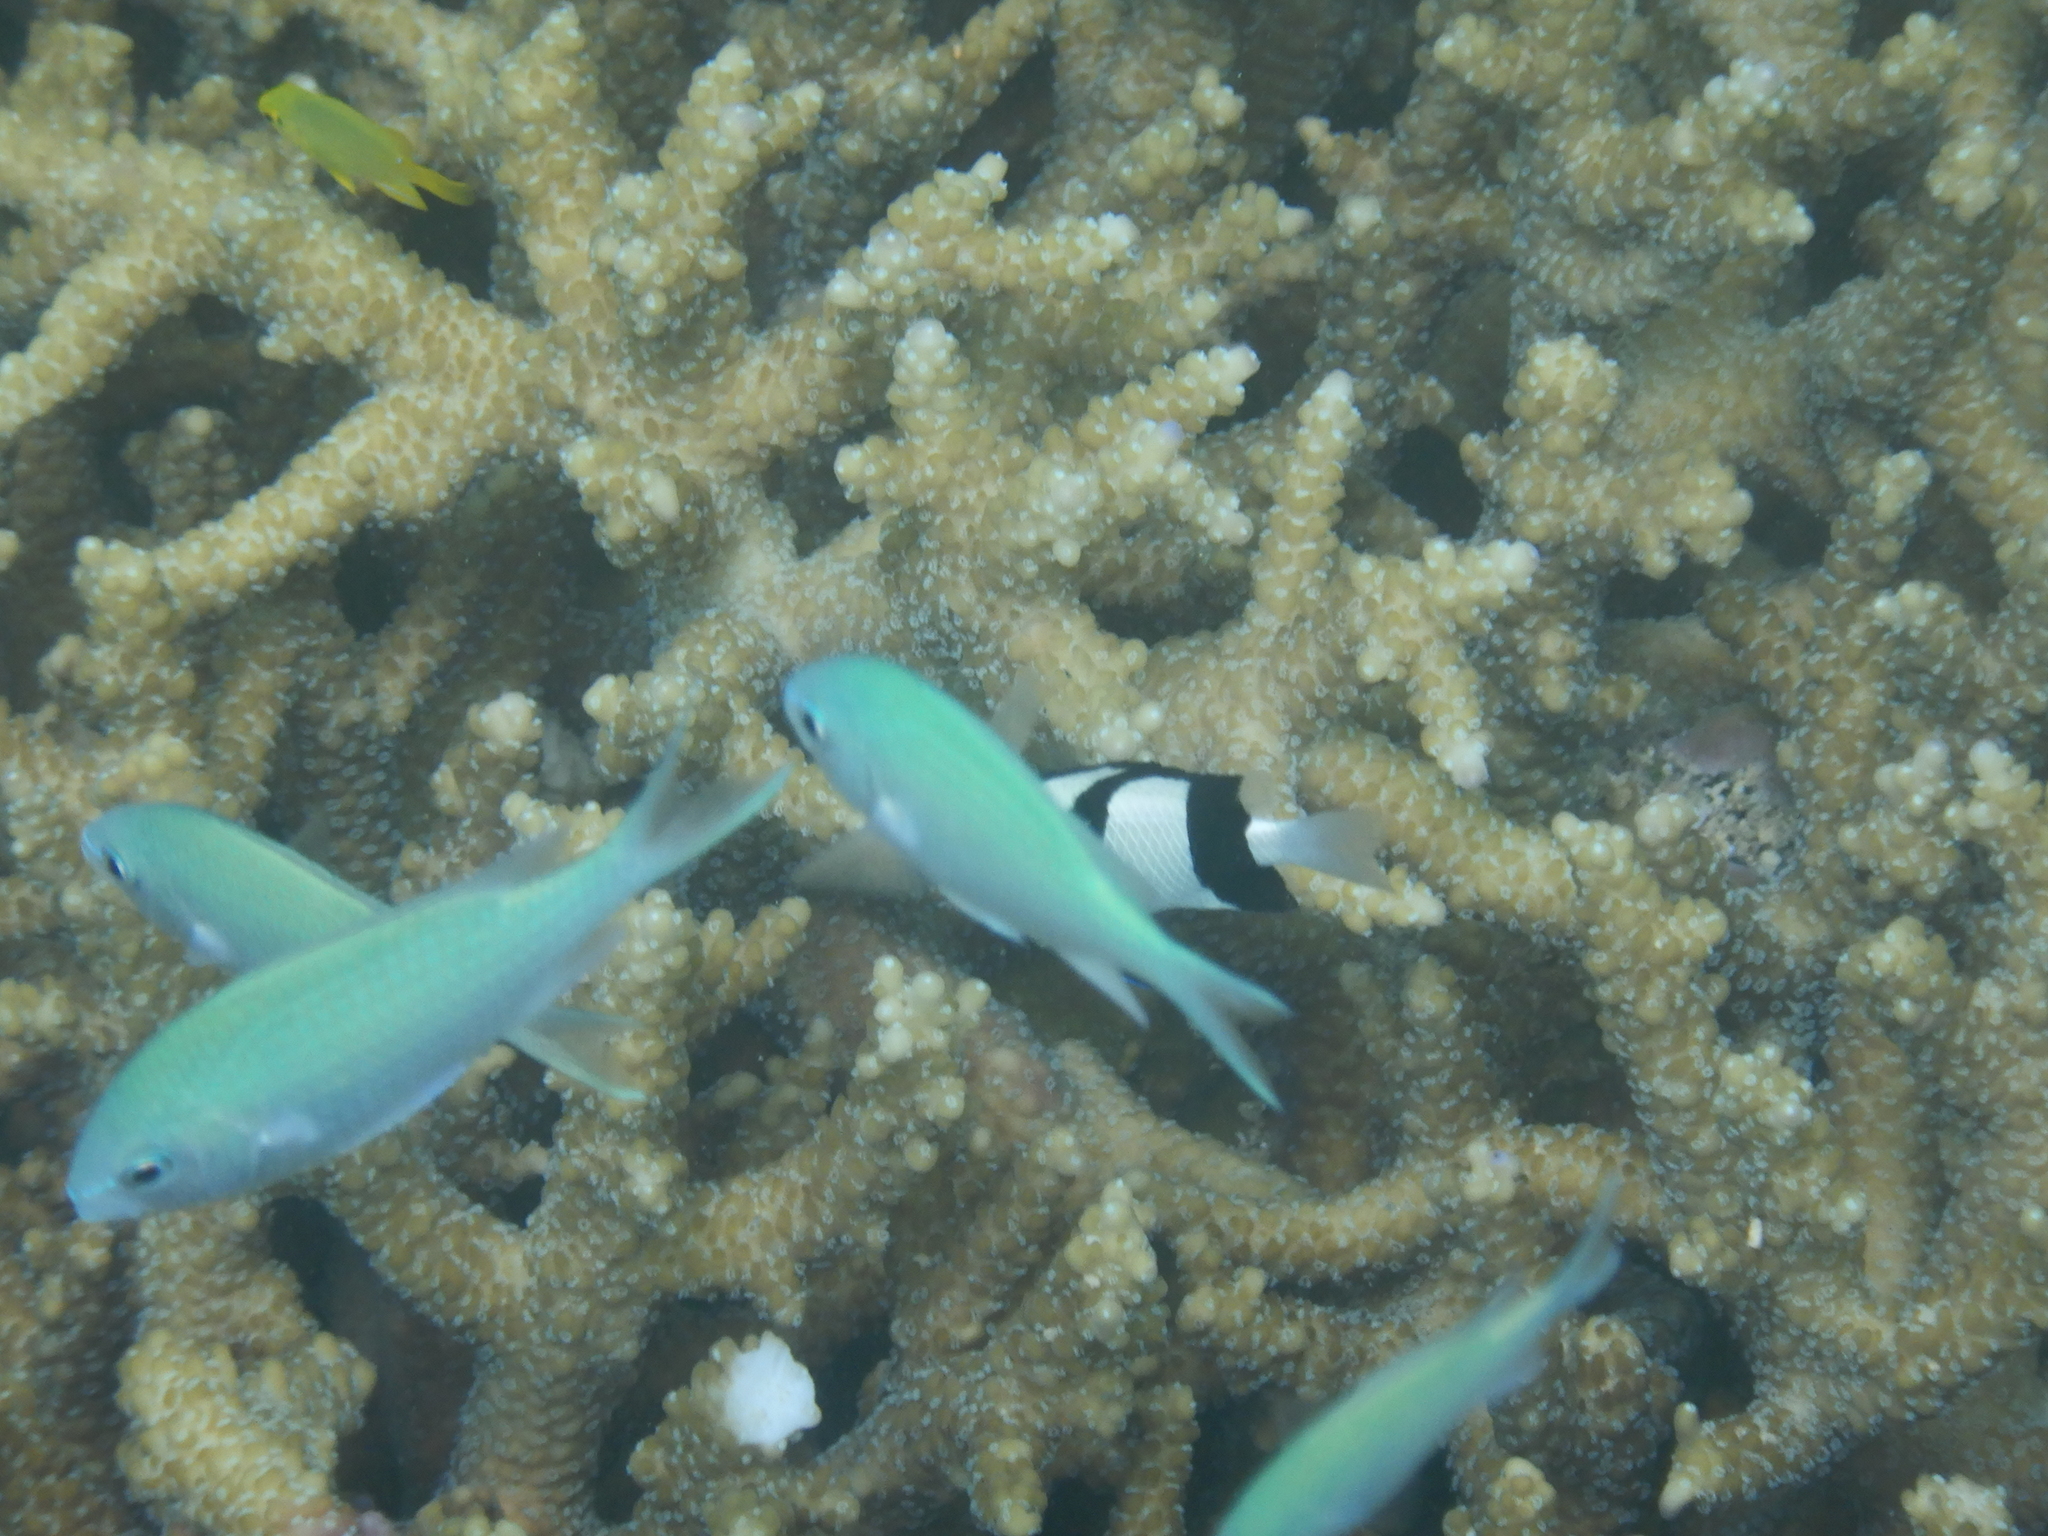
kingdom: Animalia
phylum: Chordata
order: Perciformes
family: Pomacentridae
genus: Chromis
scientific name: Chromis viridis
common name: Blue-green chromis
